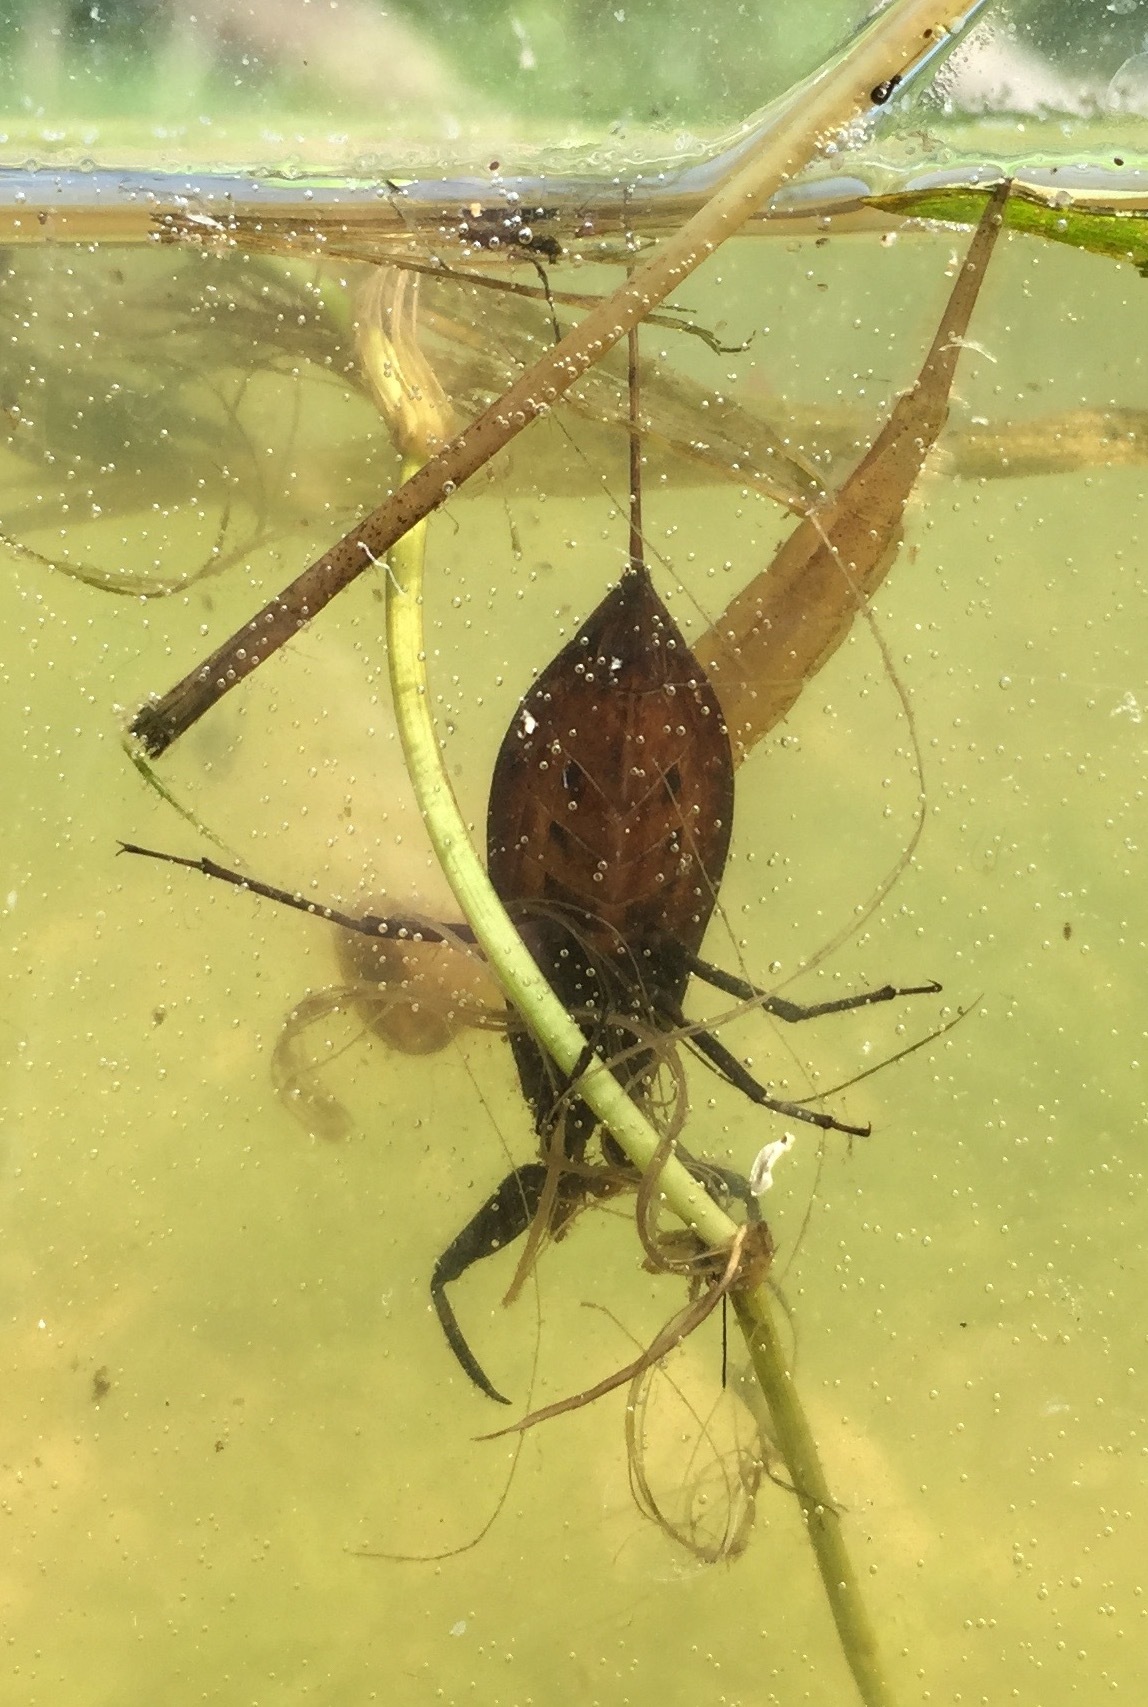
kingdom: Animalia
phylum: Arthropoda
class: Insecta
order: Hemiptera
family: Nepidae
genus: Nepa
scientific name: Nepa cinerea
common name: Water scorpion
